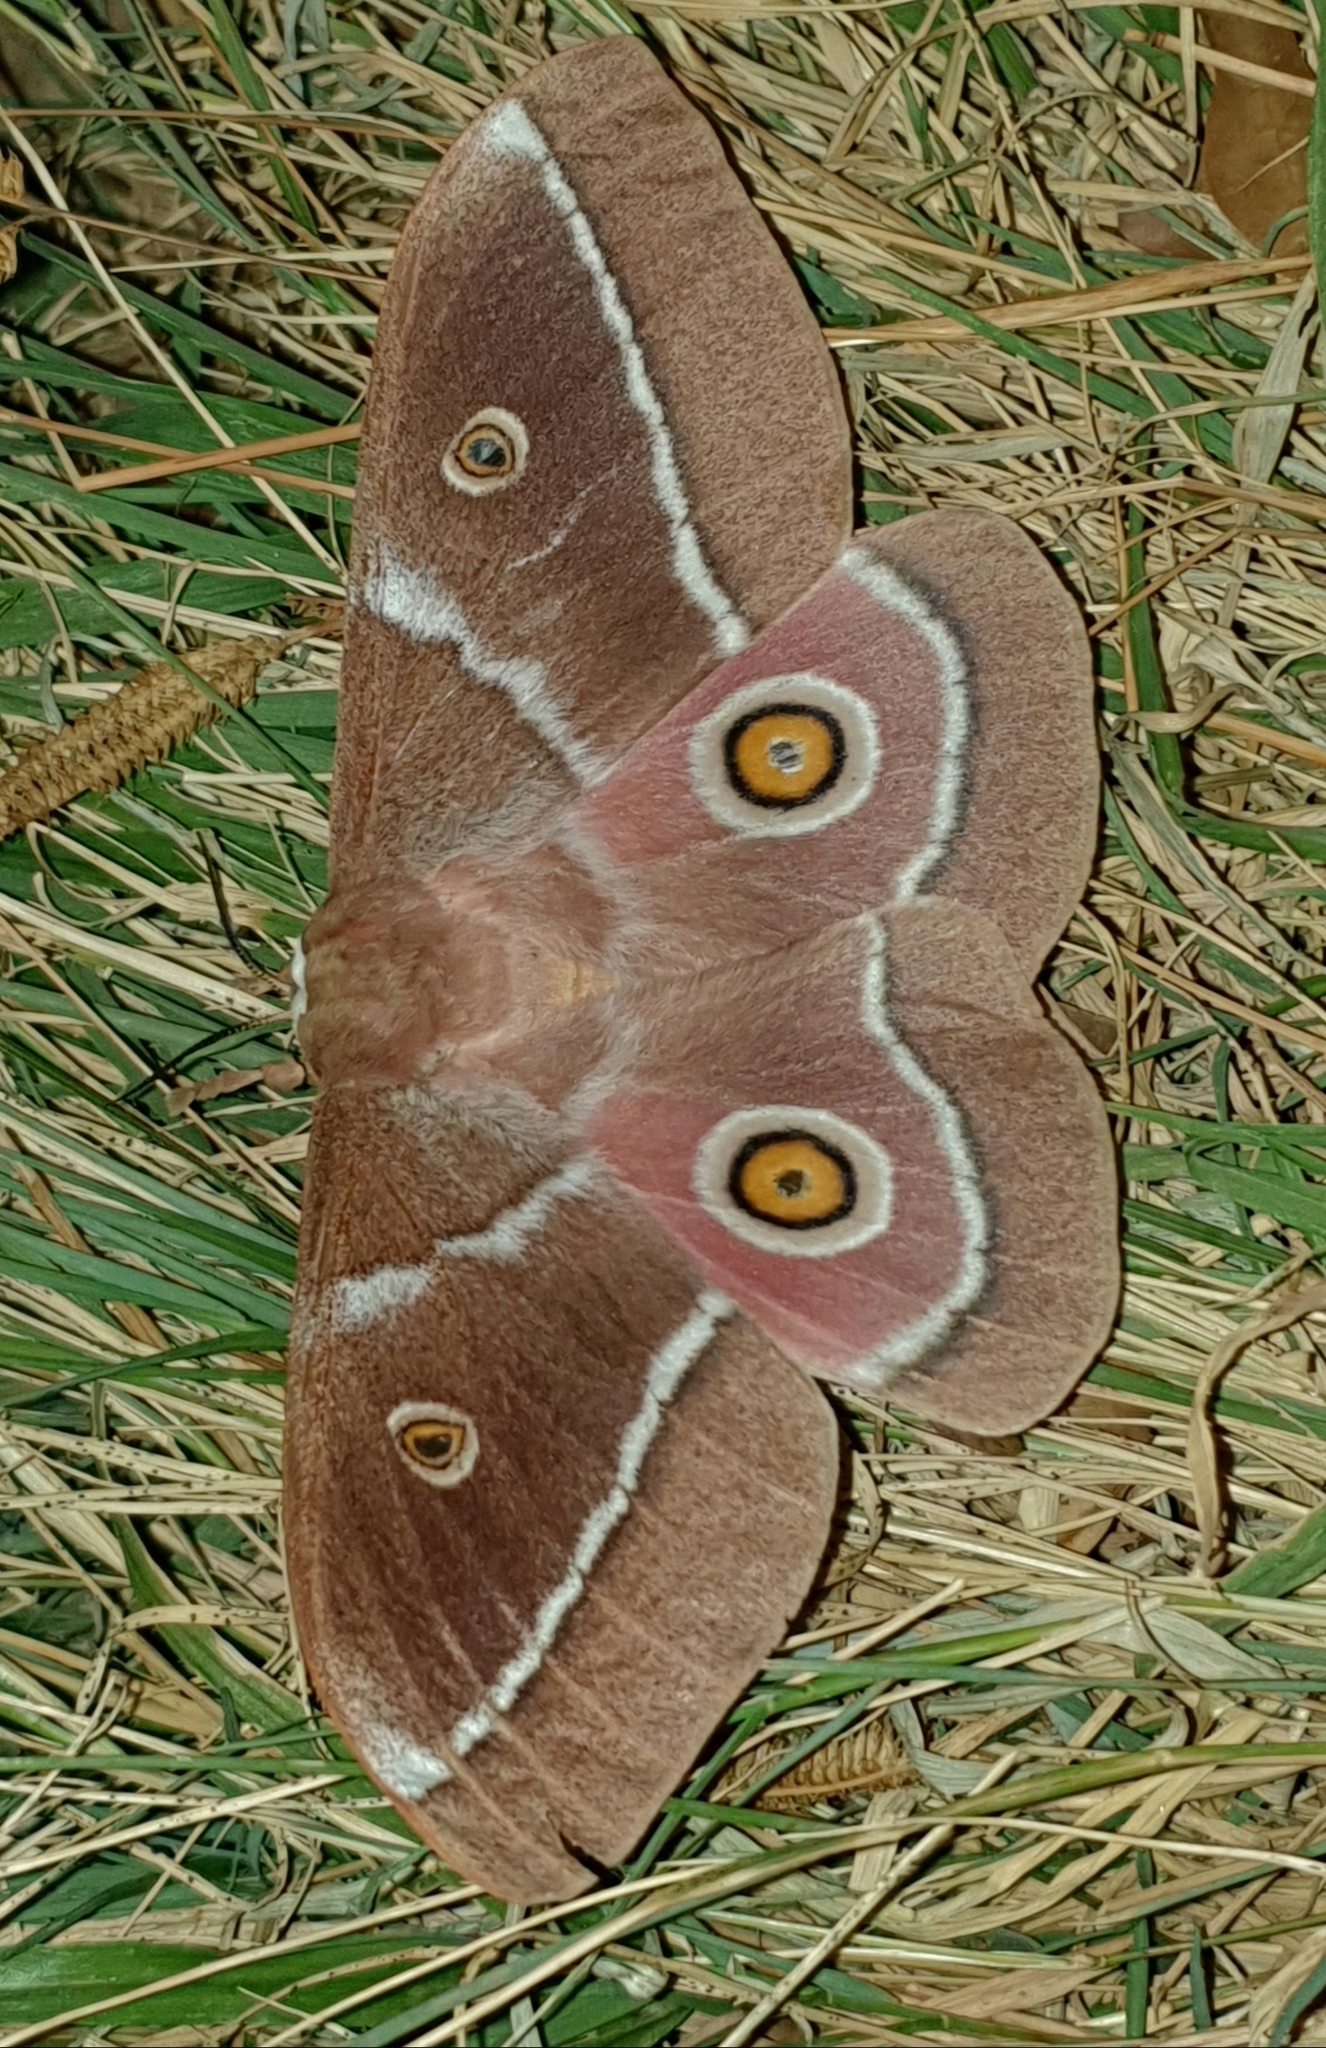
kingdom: Animalia
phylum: Arthropoda
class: Insecta
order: Lepidoptera
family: Saturniidae
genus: Gonimbrasia
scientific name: Gonimbrasia belina
